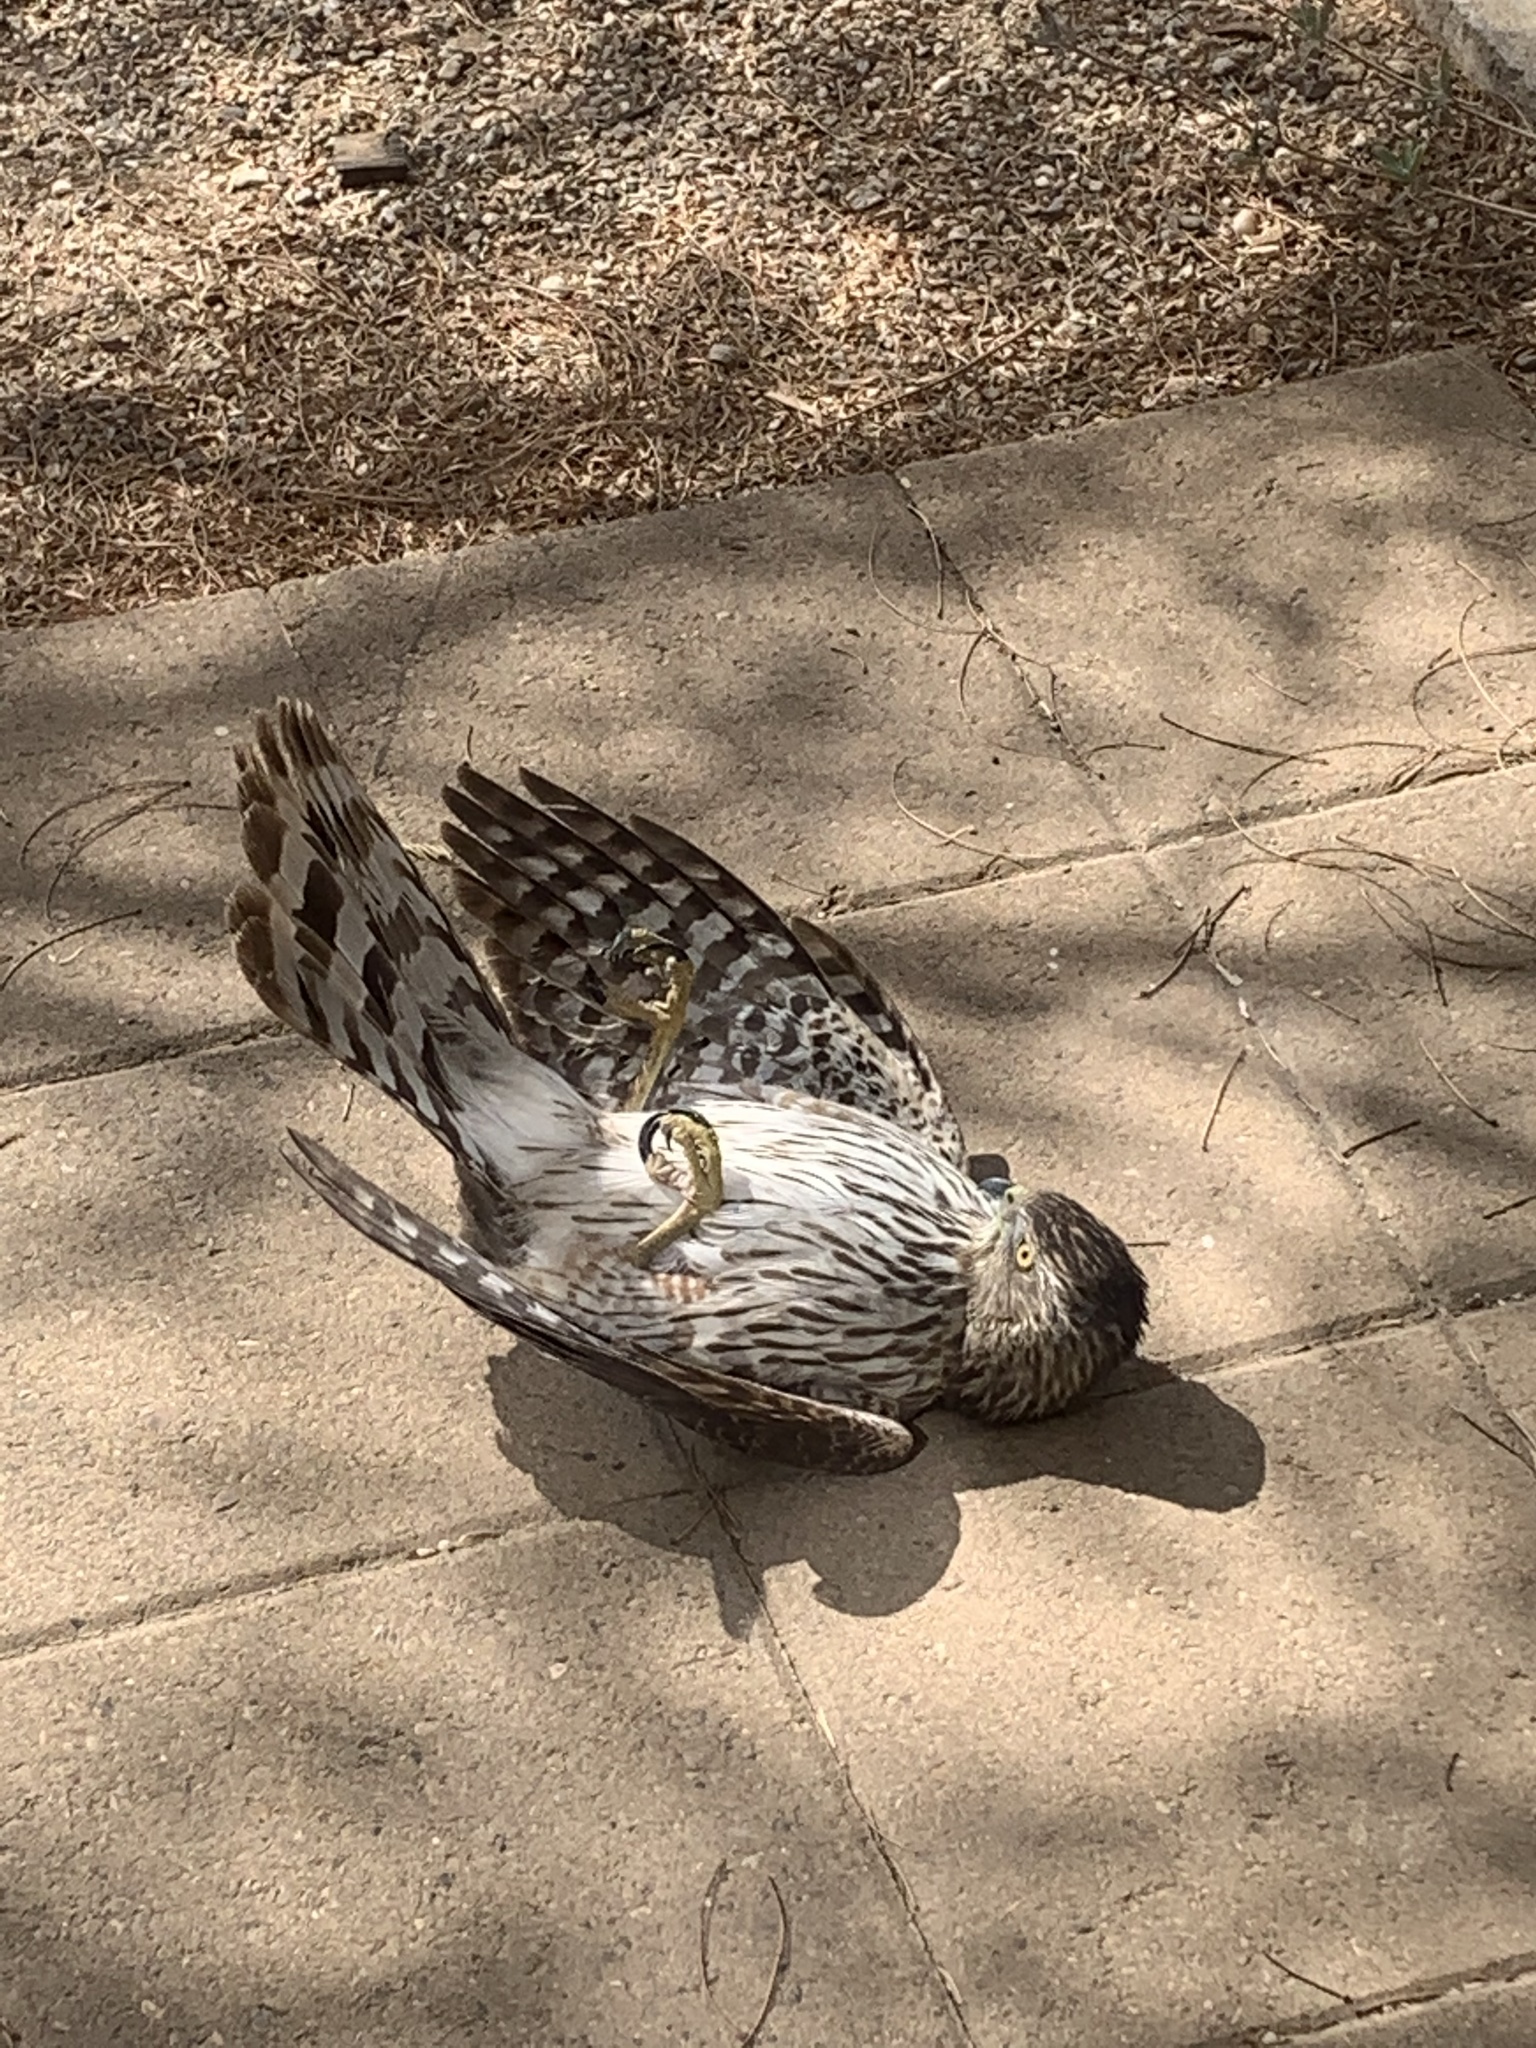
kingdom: Animalia
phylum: Chordata
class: Aves
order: Accipitriformes
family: Accipitridae
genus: Accipiter
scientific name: Accipiter cooperii
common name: Cooper's hawk
